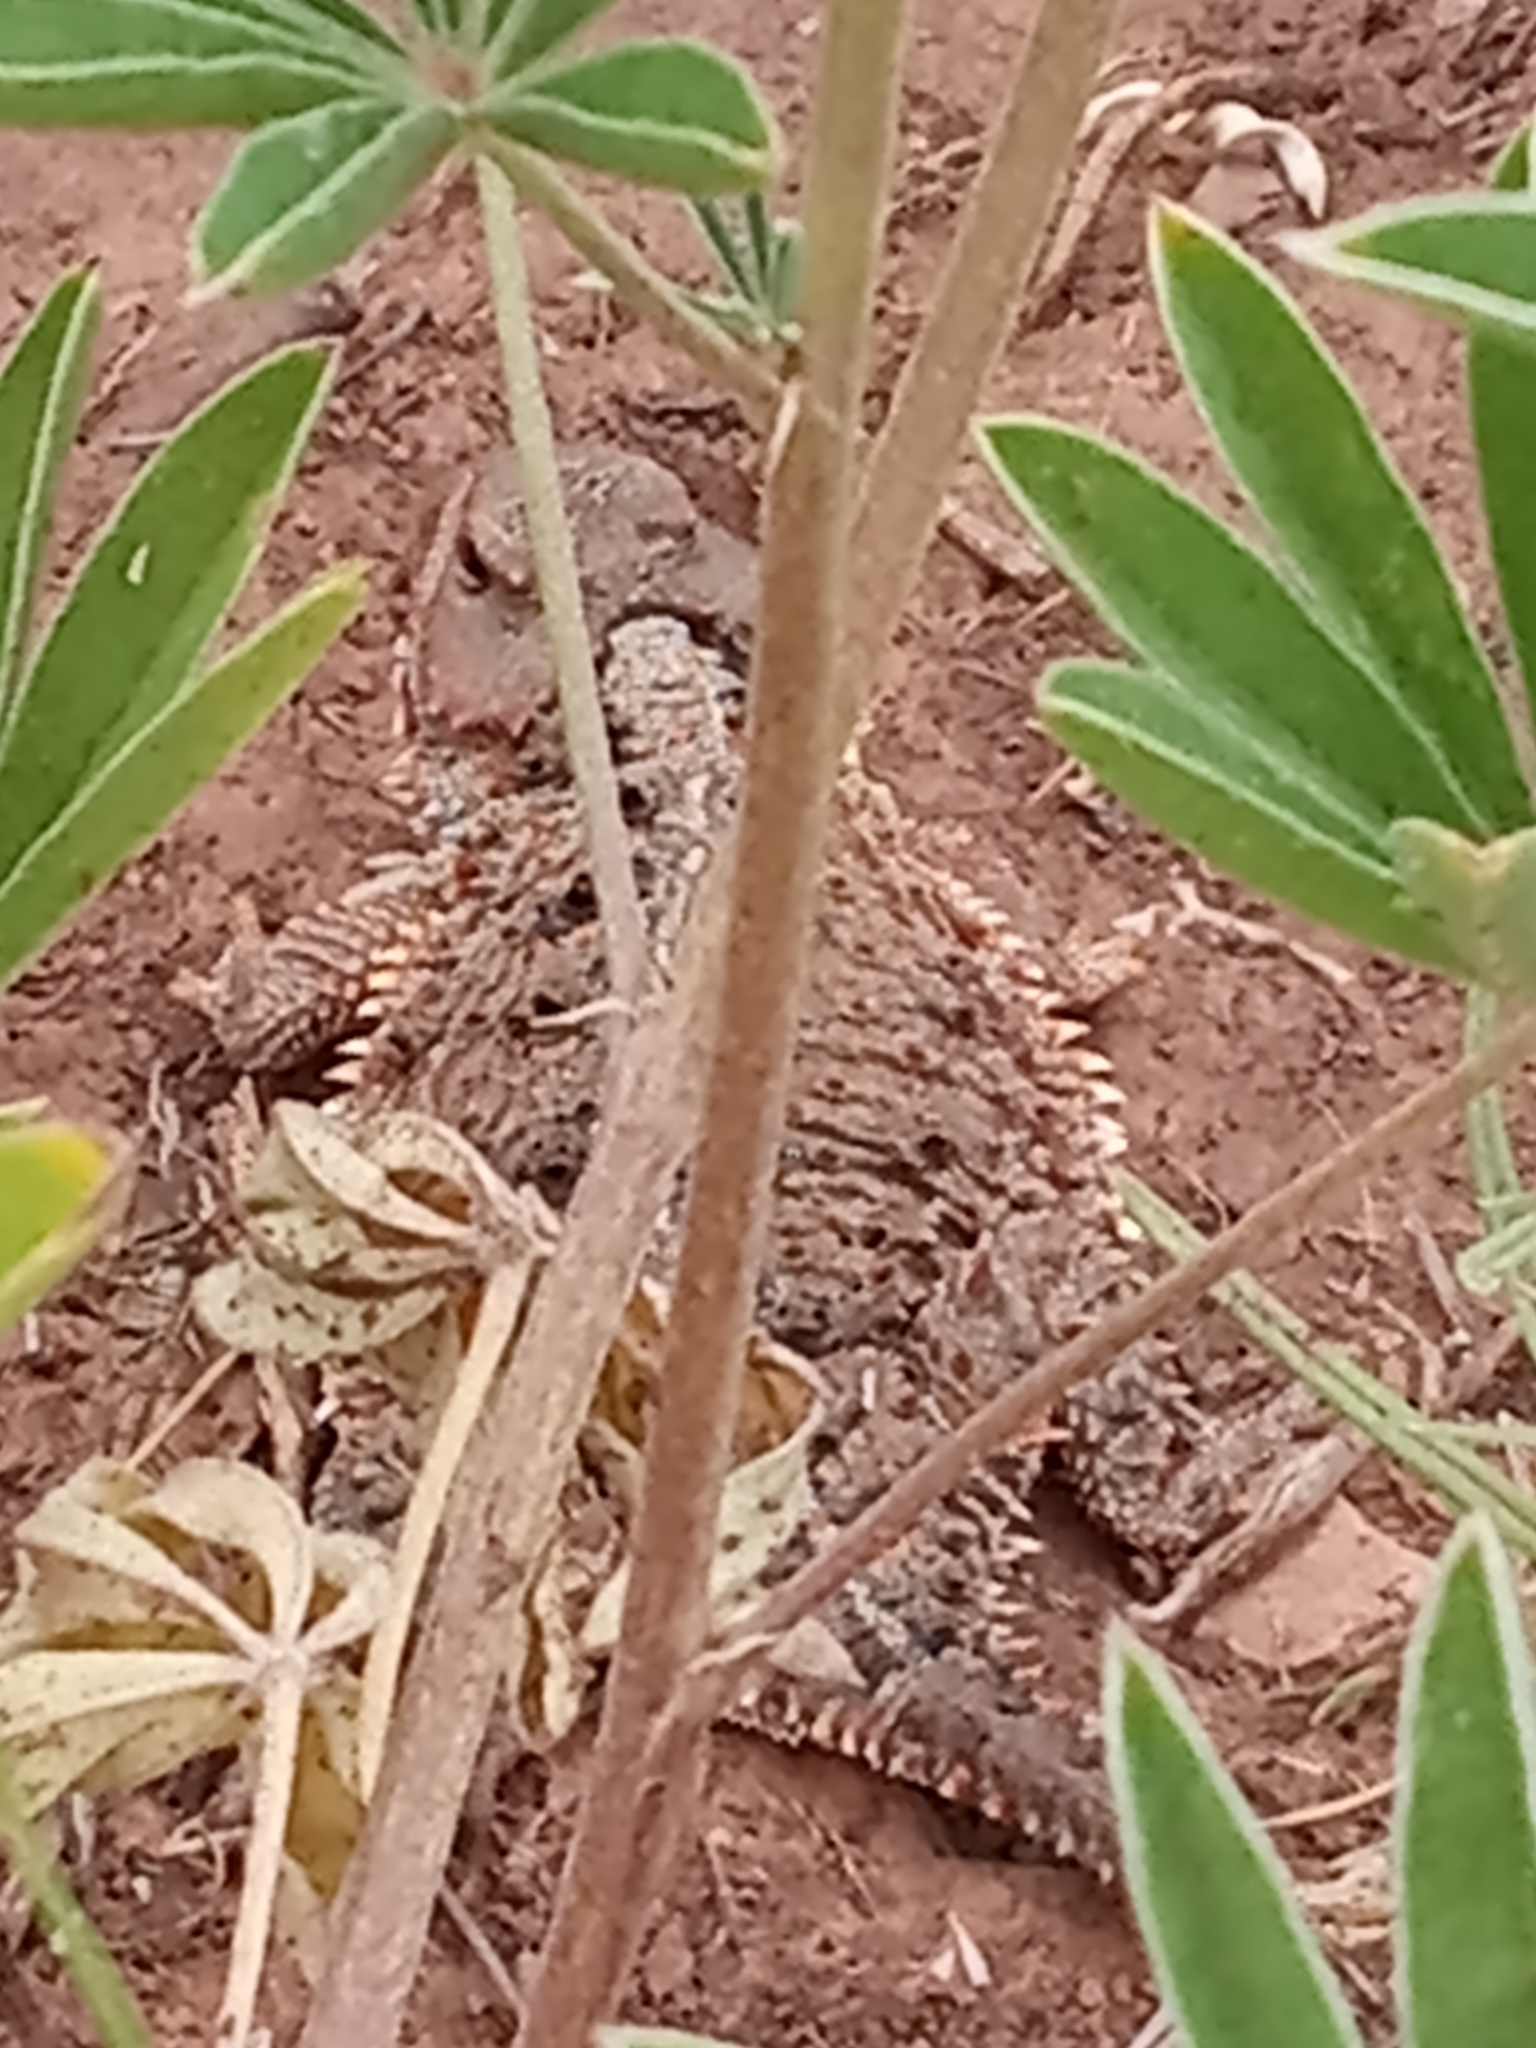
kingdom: Animalia
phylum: Chordata
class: Squamata
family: Phrynosomatidae
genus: Phrynosoma
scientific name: Phrynosoma hernandesi
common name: Greater short-horned lizard
